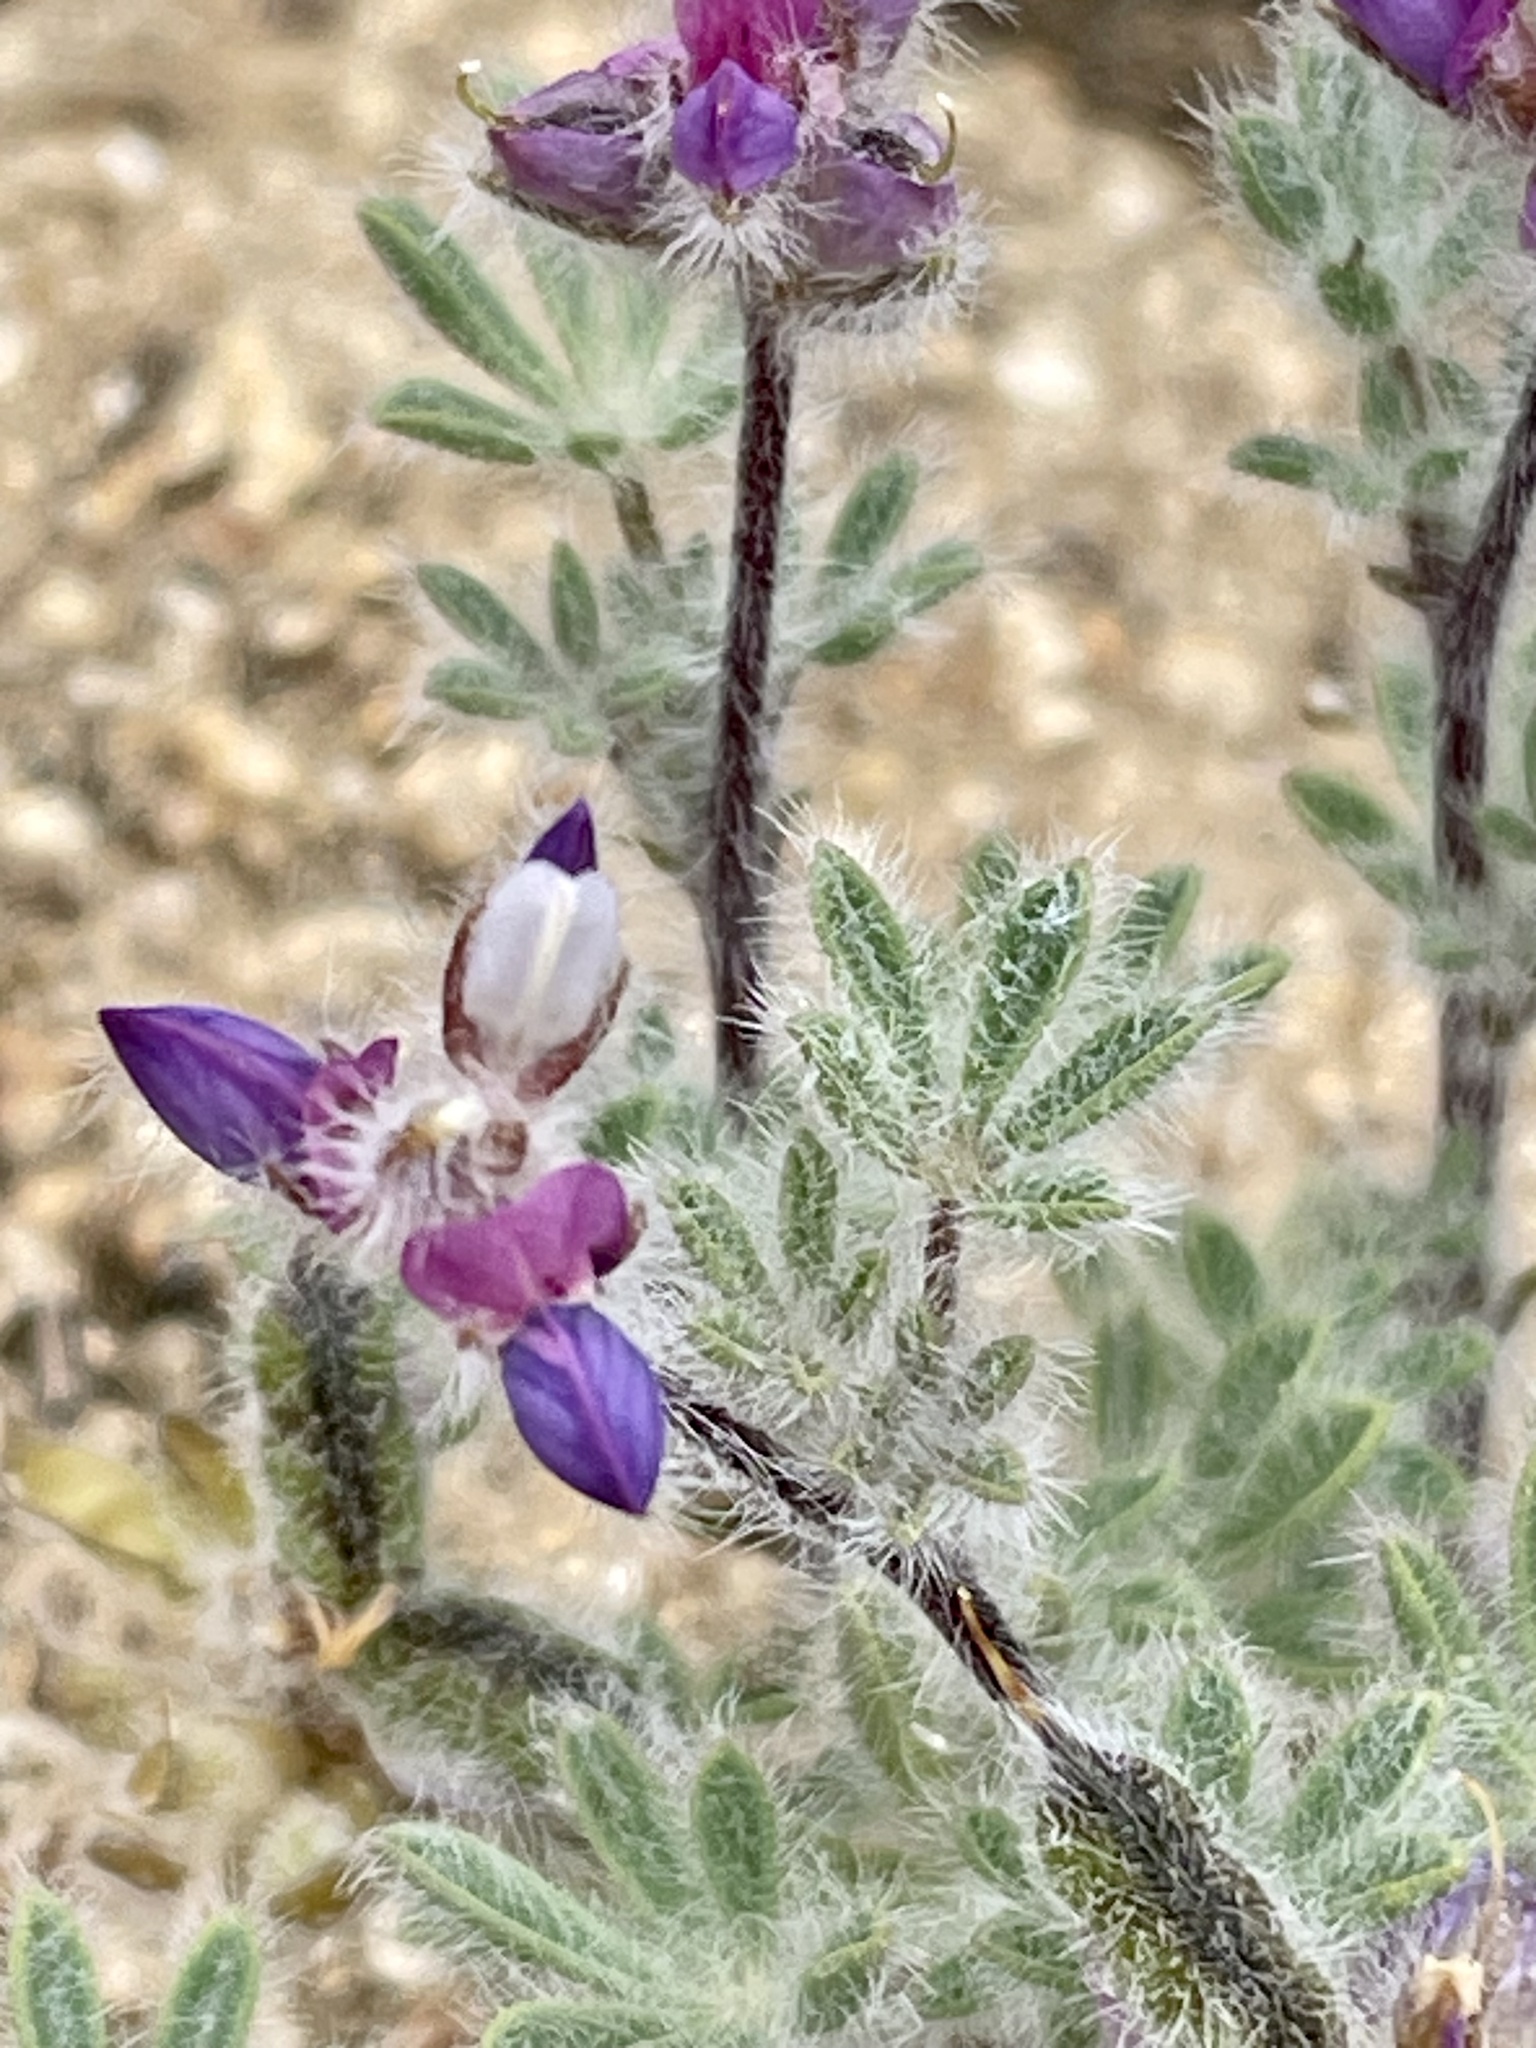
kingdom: Plantae
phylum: Tracheophyta
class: Magnoliopsida
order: Fabales
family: Fabaceae
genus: Lupinus
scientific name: Lupinus concinnus
